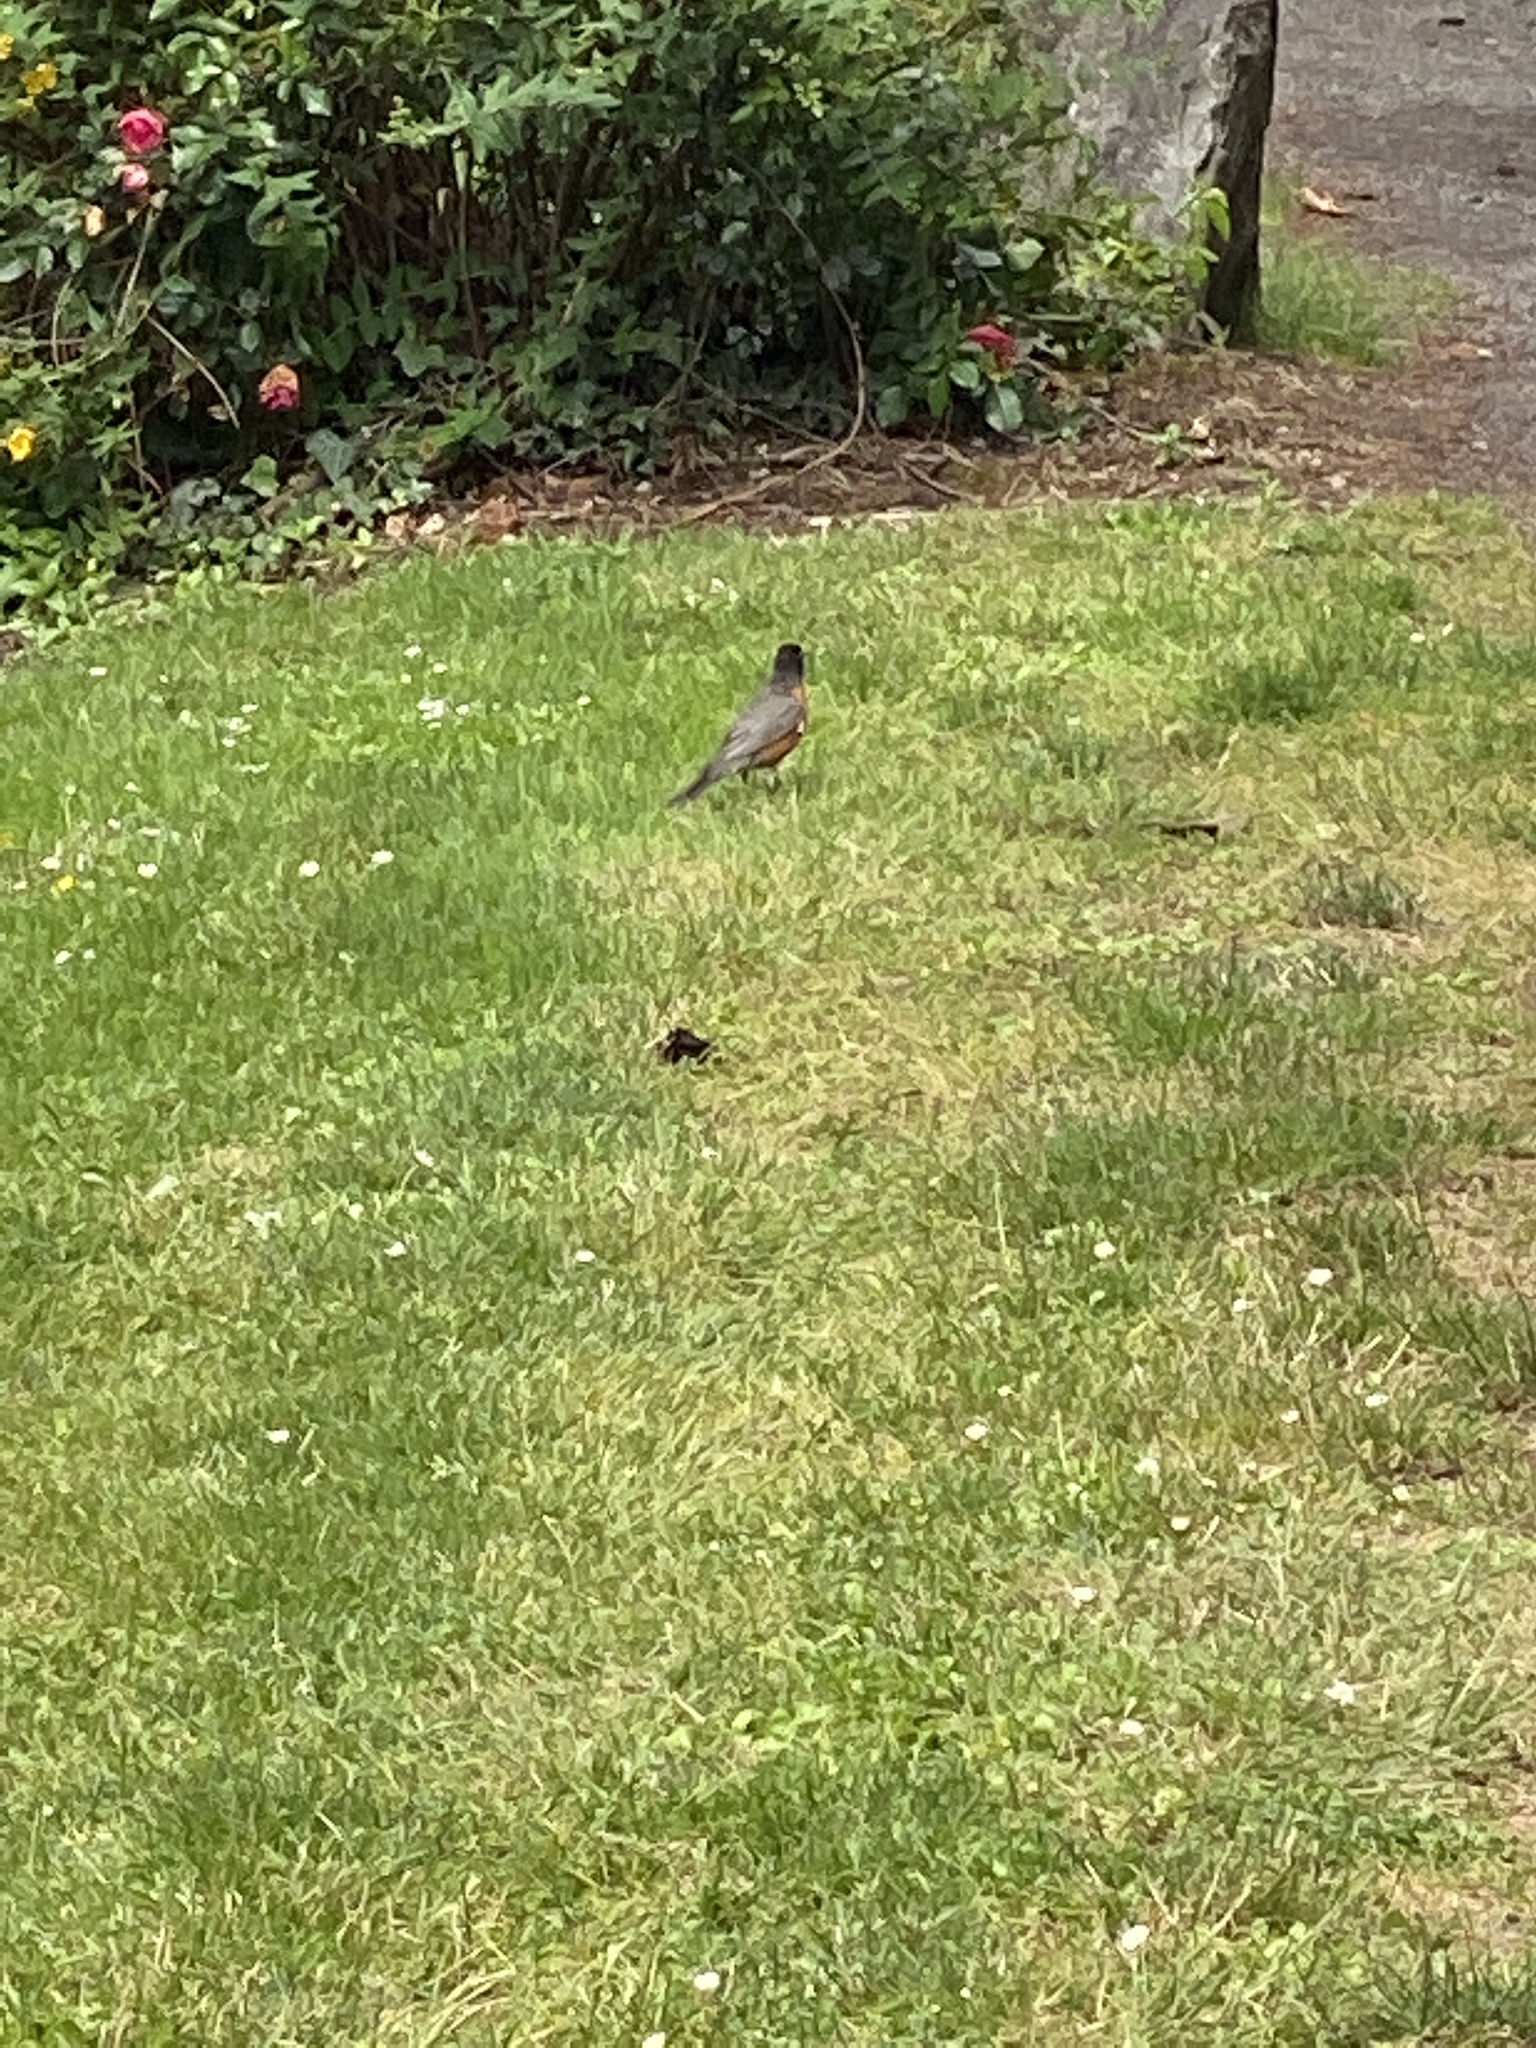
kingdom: Animalia
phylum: Chordata
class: Aves
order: Passeriformes
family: Turdidae
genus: Turdus
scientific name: Turdus migratorius
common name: American robin
